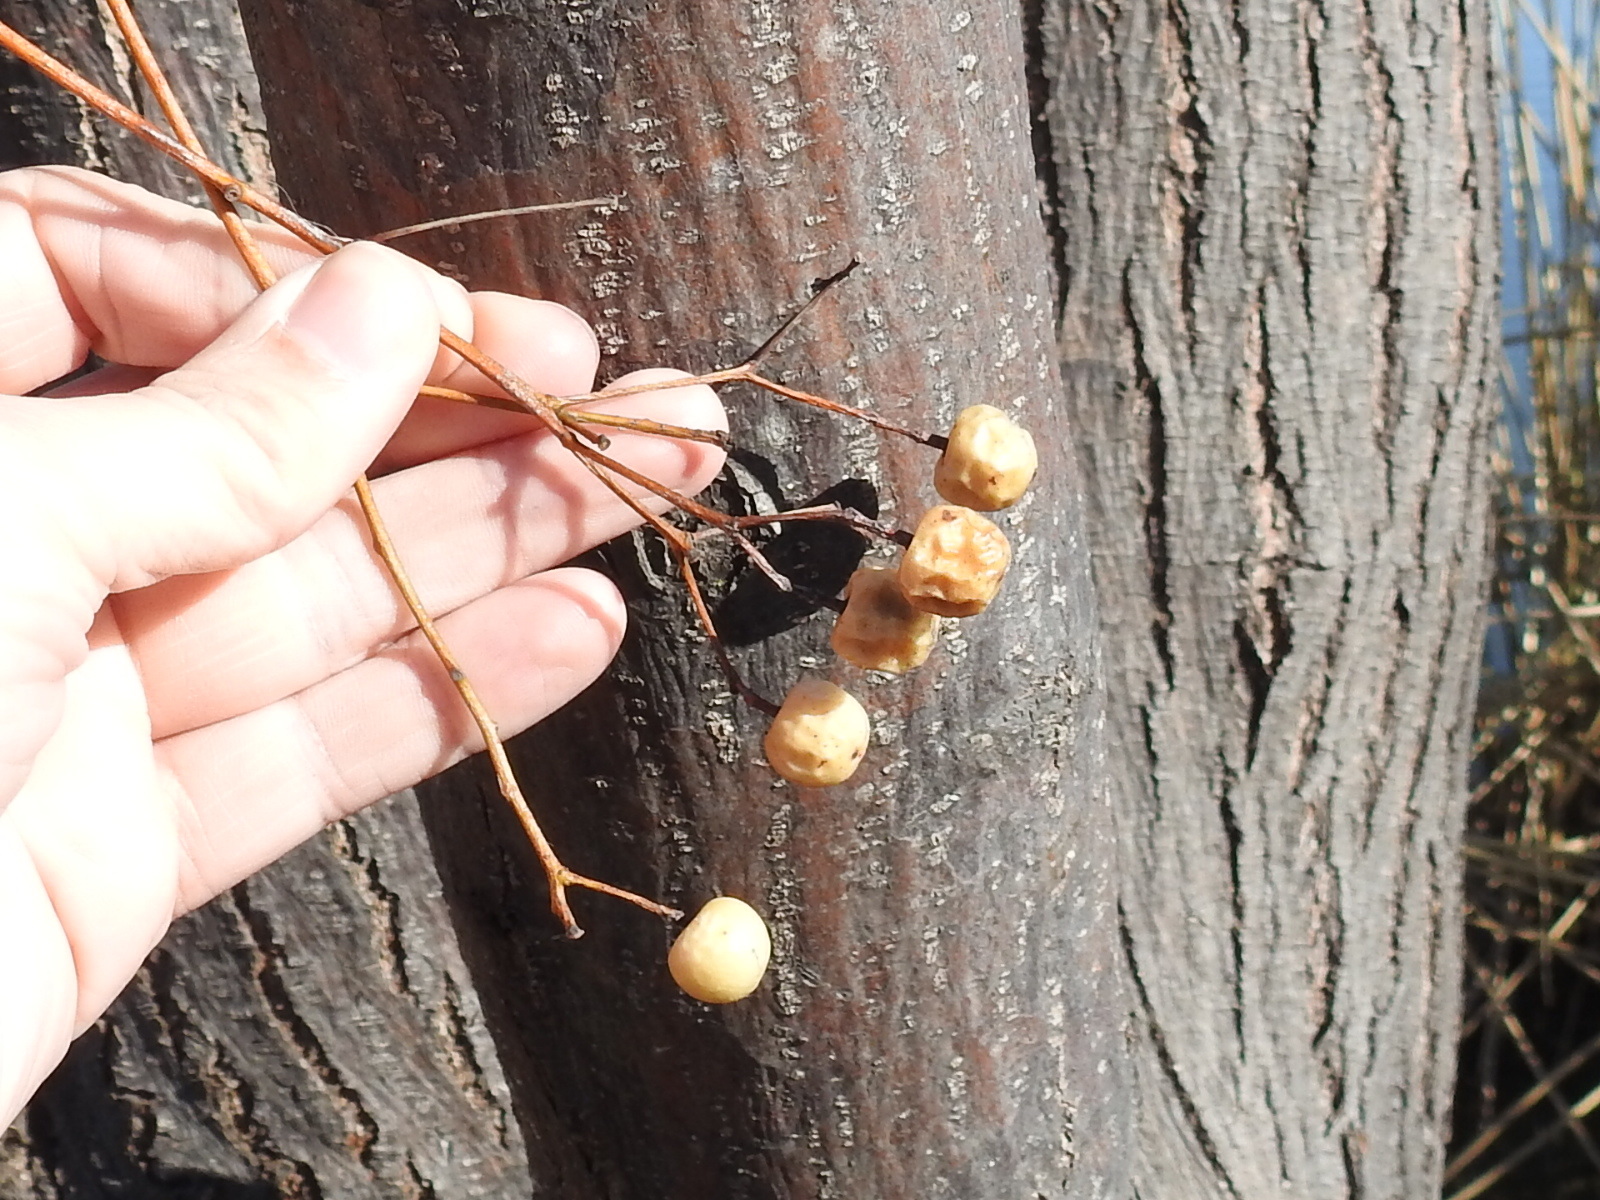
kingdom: Plantae
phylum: Tracheophyta
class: Magnoliopsida
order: Sapindales
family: Meliaceae
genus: Melia
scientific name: Melia azedarach
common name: Chinaberrytree
